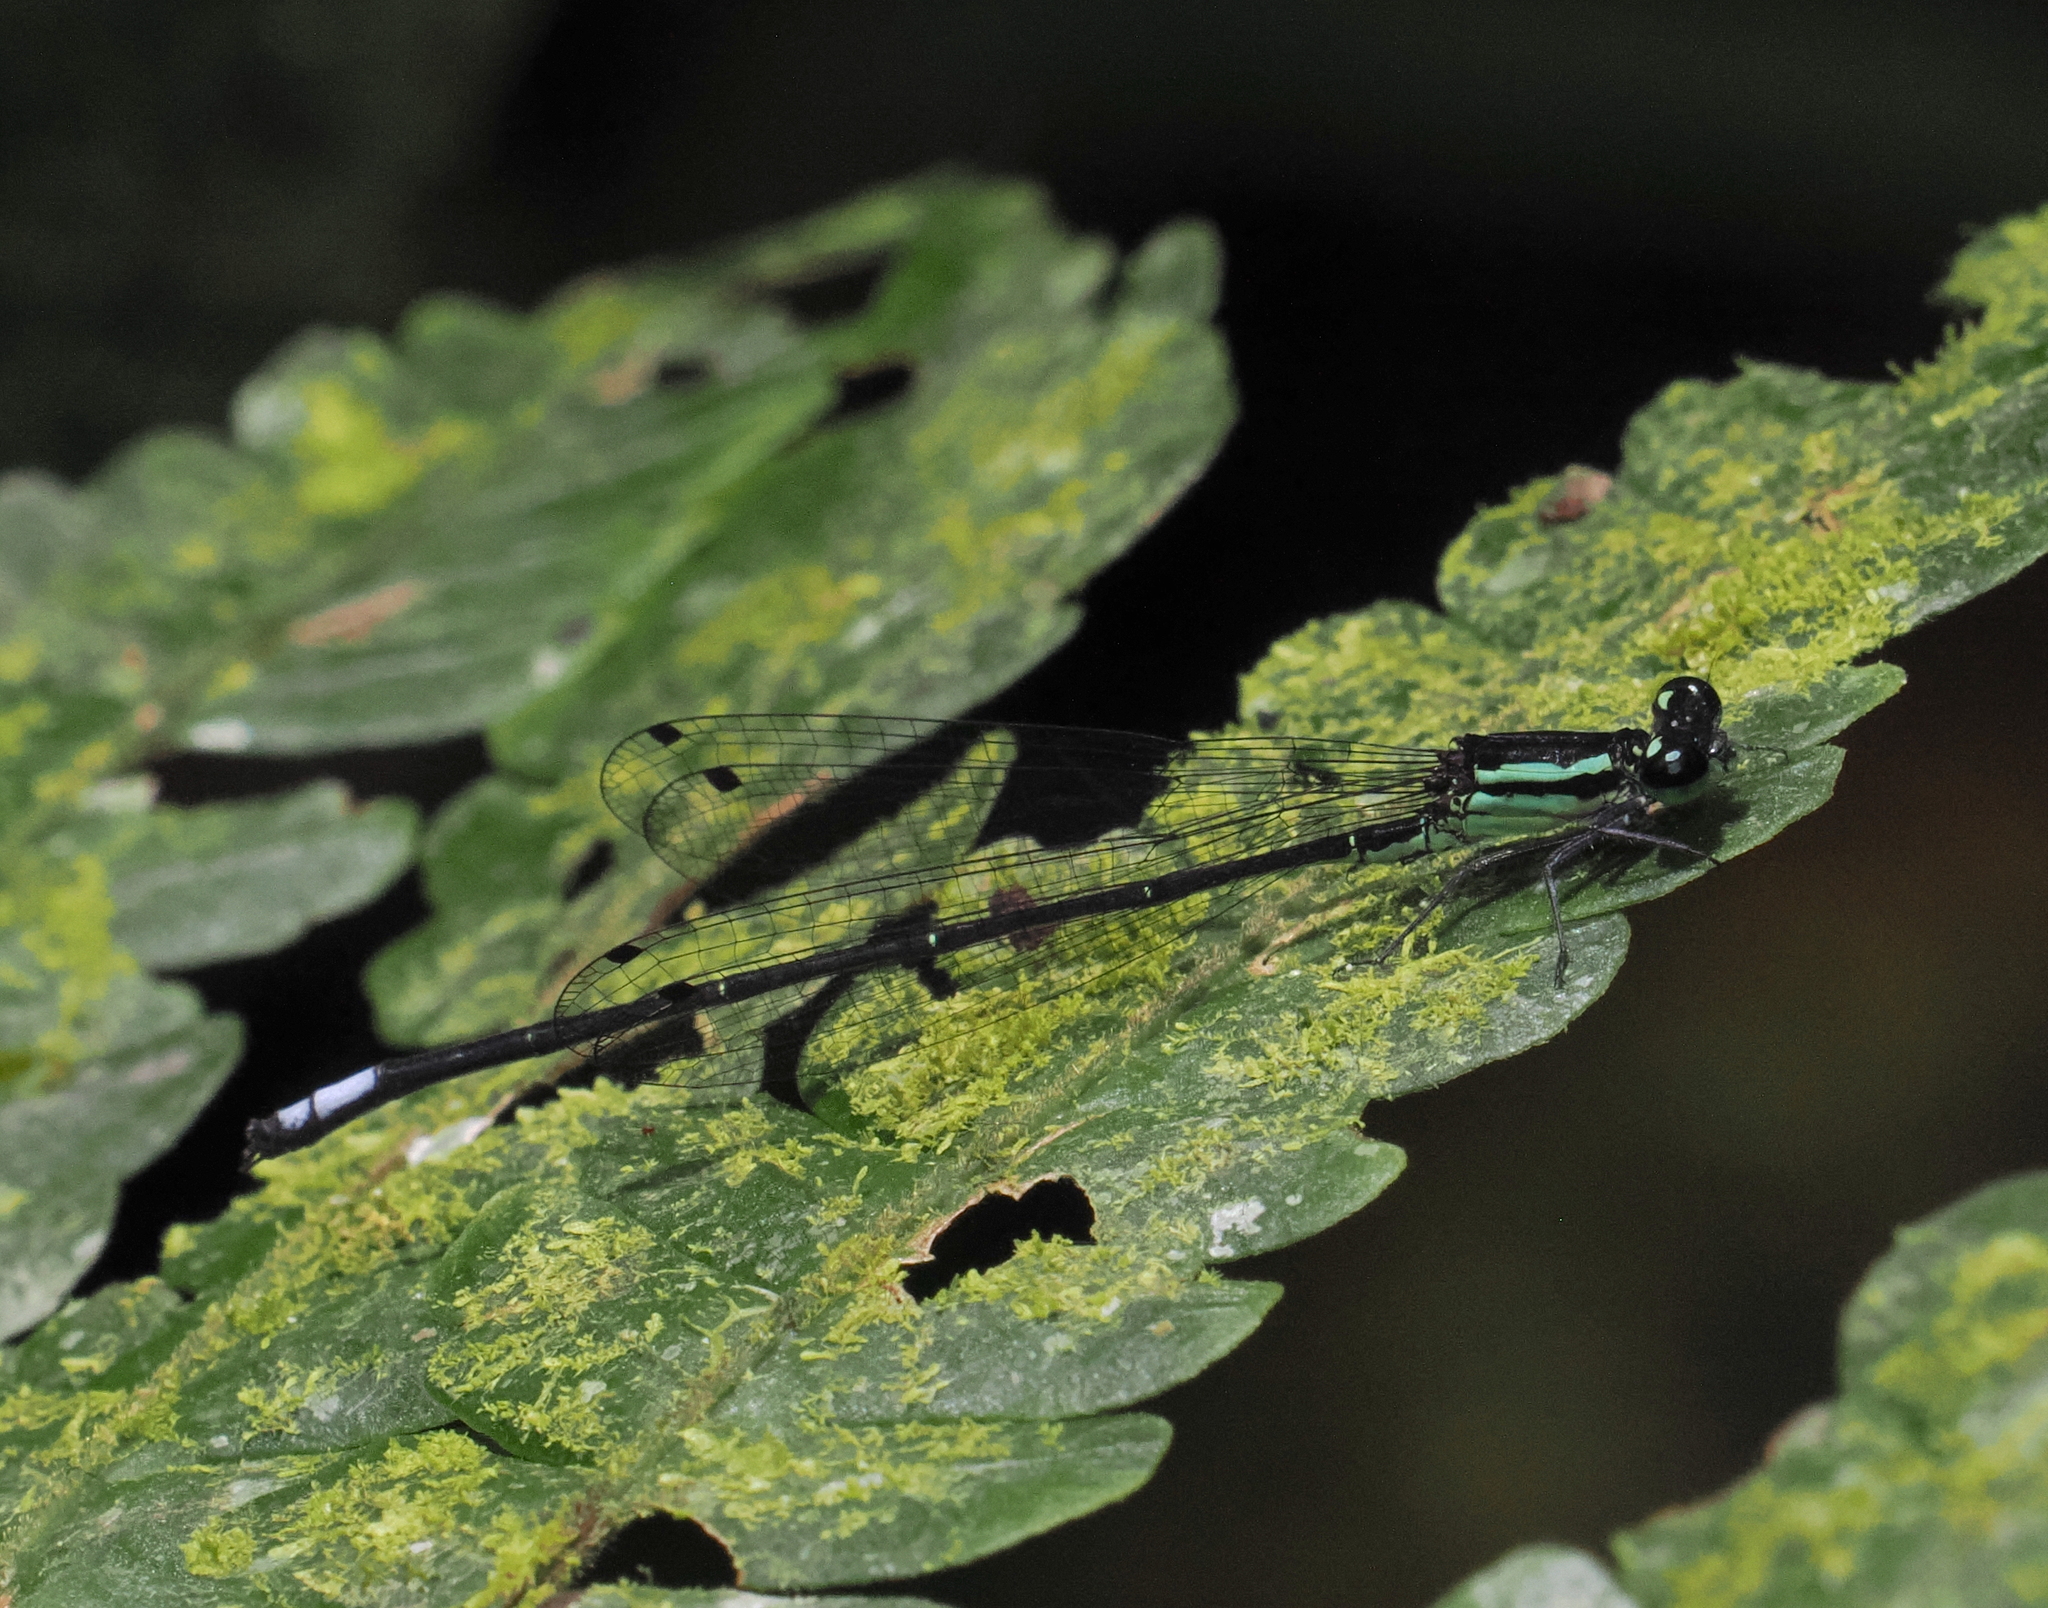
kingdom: Animalia
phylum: Arthropoda
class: Insecta
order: Odonata
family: Coenagrionidae
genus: Anisagrion
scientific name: Anisagrion inornatum
